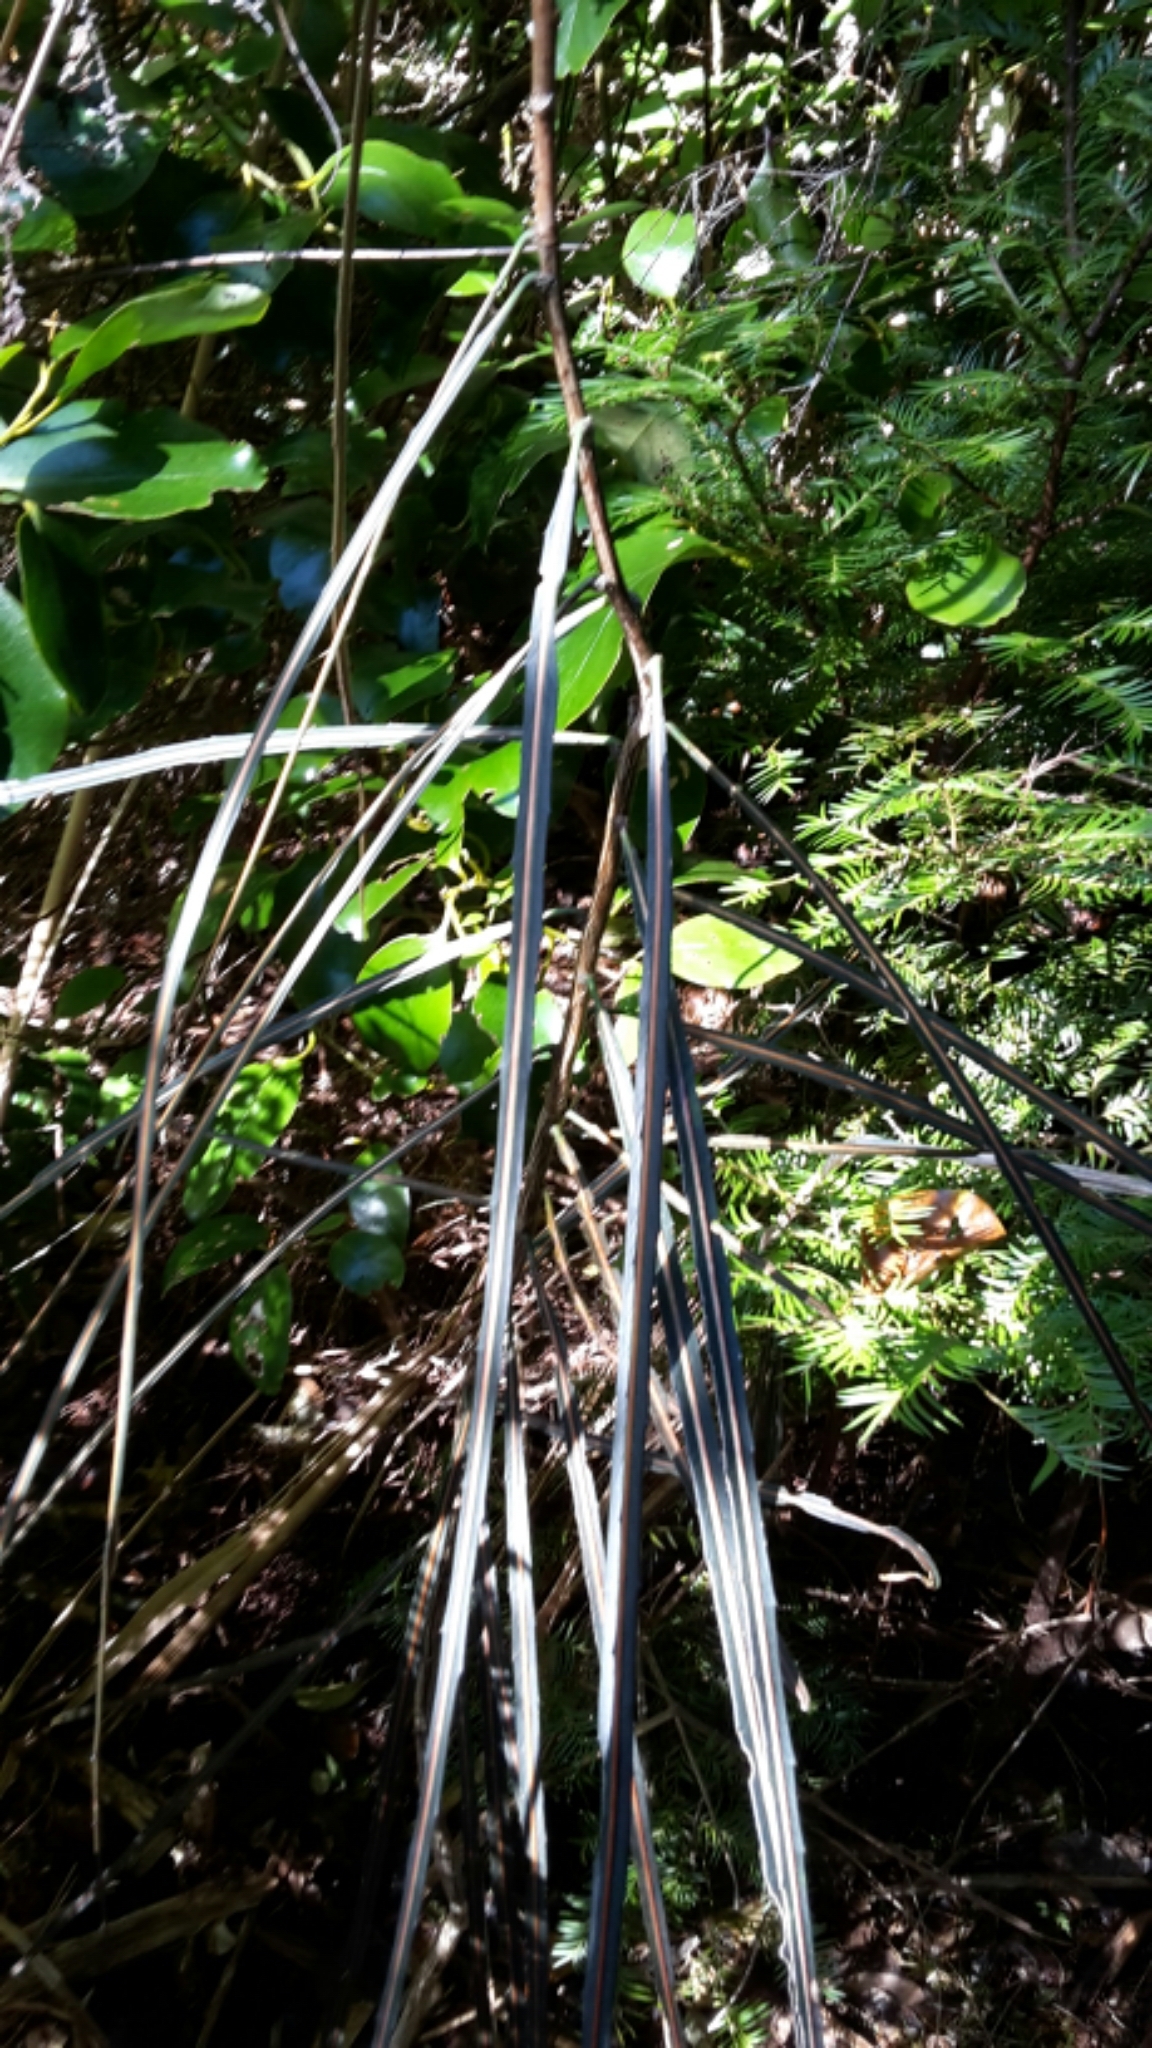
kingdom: Plantae
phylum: Tracheophyta
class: Magnoliopsida
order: Apiales
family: Araliaceae
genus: Pseudopanax
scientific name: Pseudopanax crassifolius
